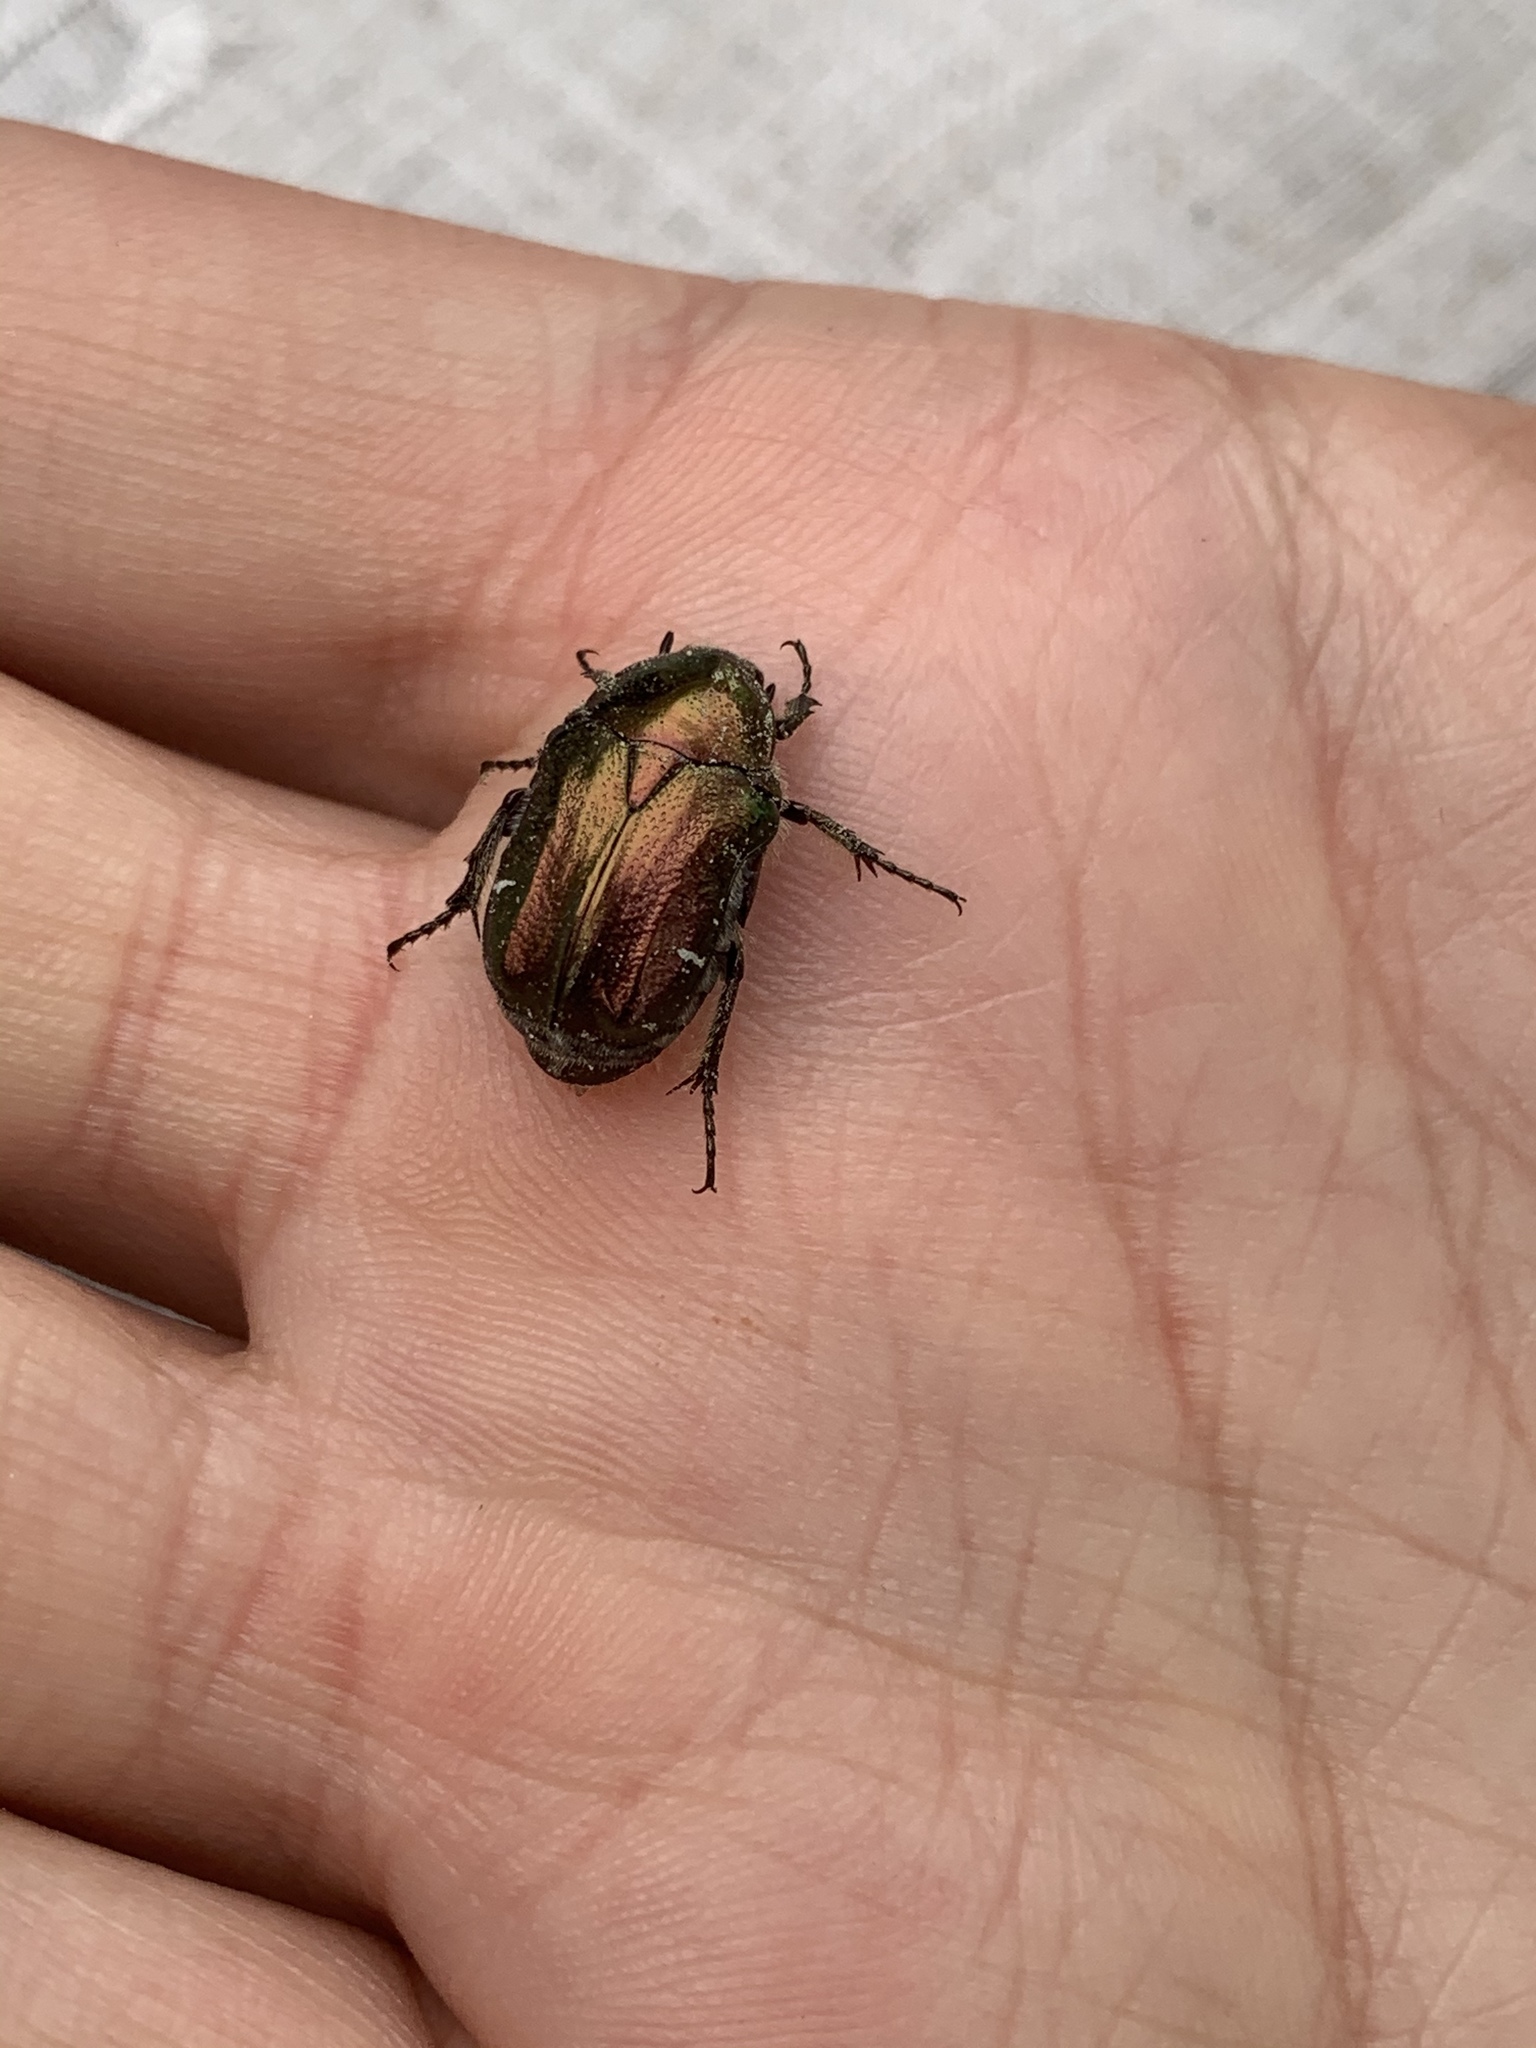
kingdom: Animalia
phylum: Arthropoda
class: Insecta
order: Coleoptera
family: Scarabaeidae
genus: Cetonia
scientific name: Cetonia aurata
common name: Rose chafer
